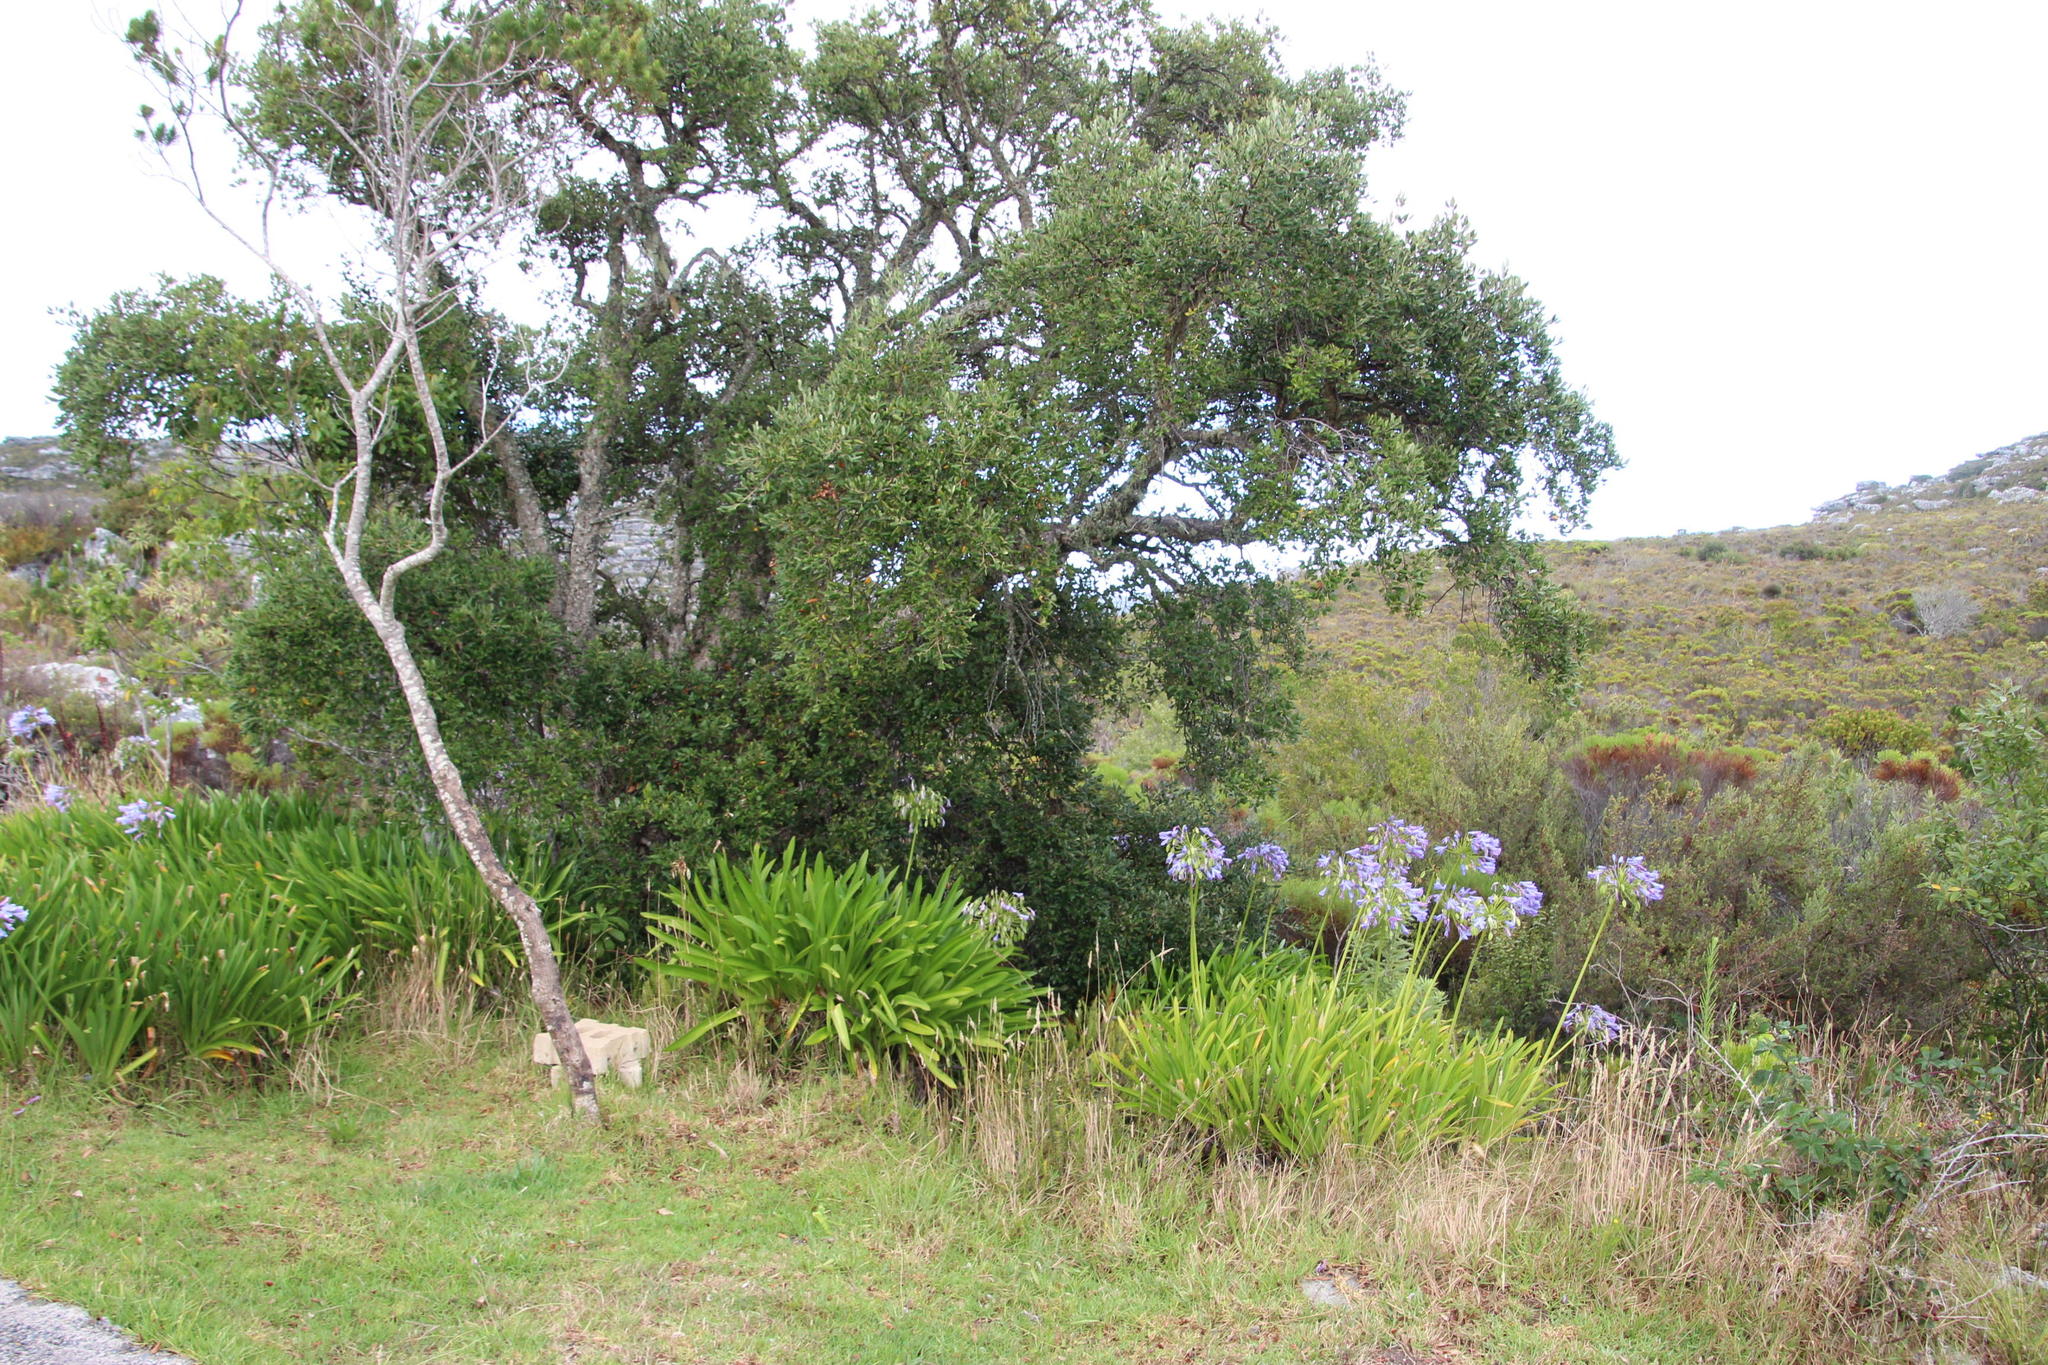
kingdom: Plantae
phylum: Tracheophyta
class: Magnoliopsida
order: Fagales
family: Fagaceae
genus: Quercus
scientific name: Quercus suber
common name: Cork oak
